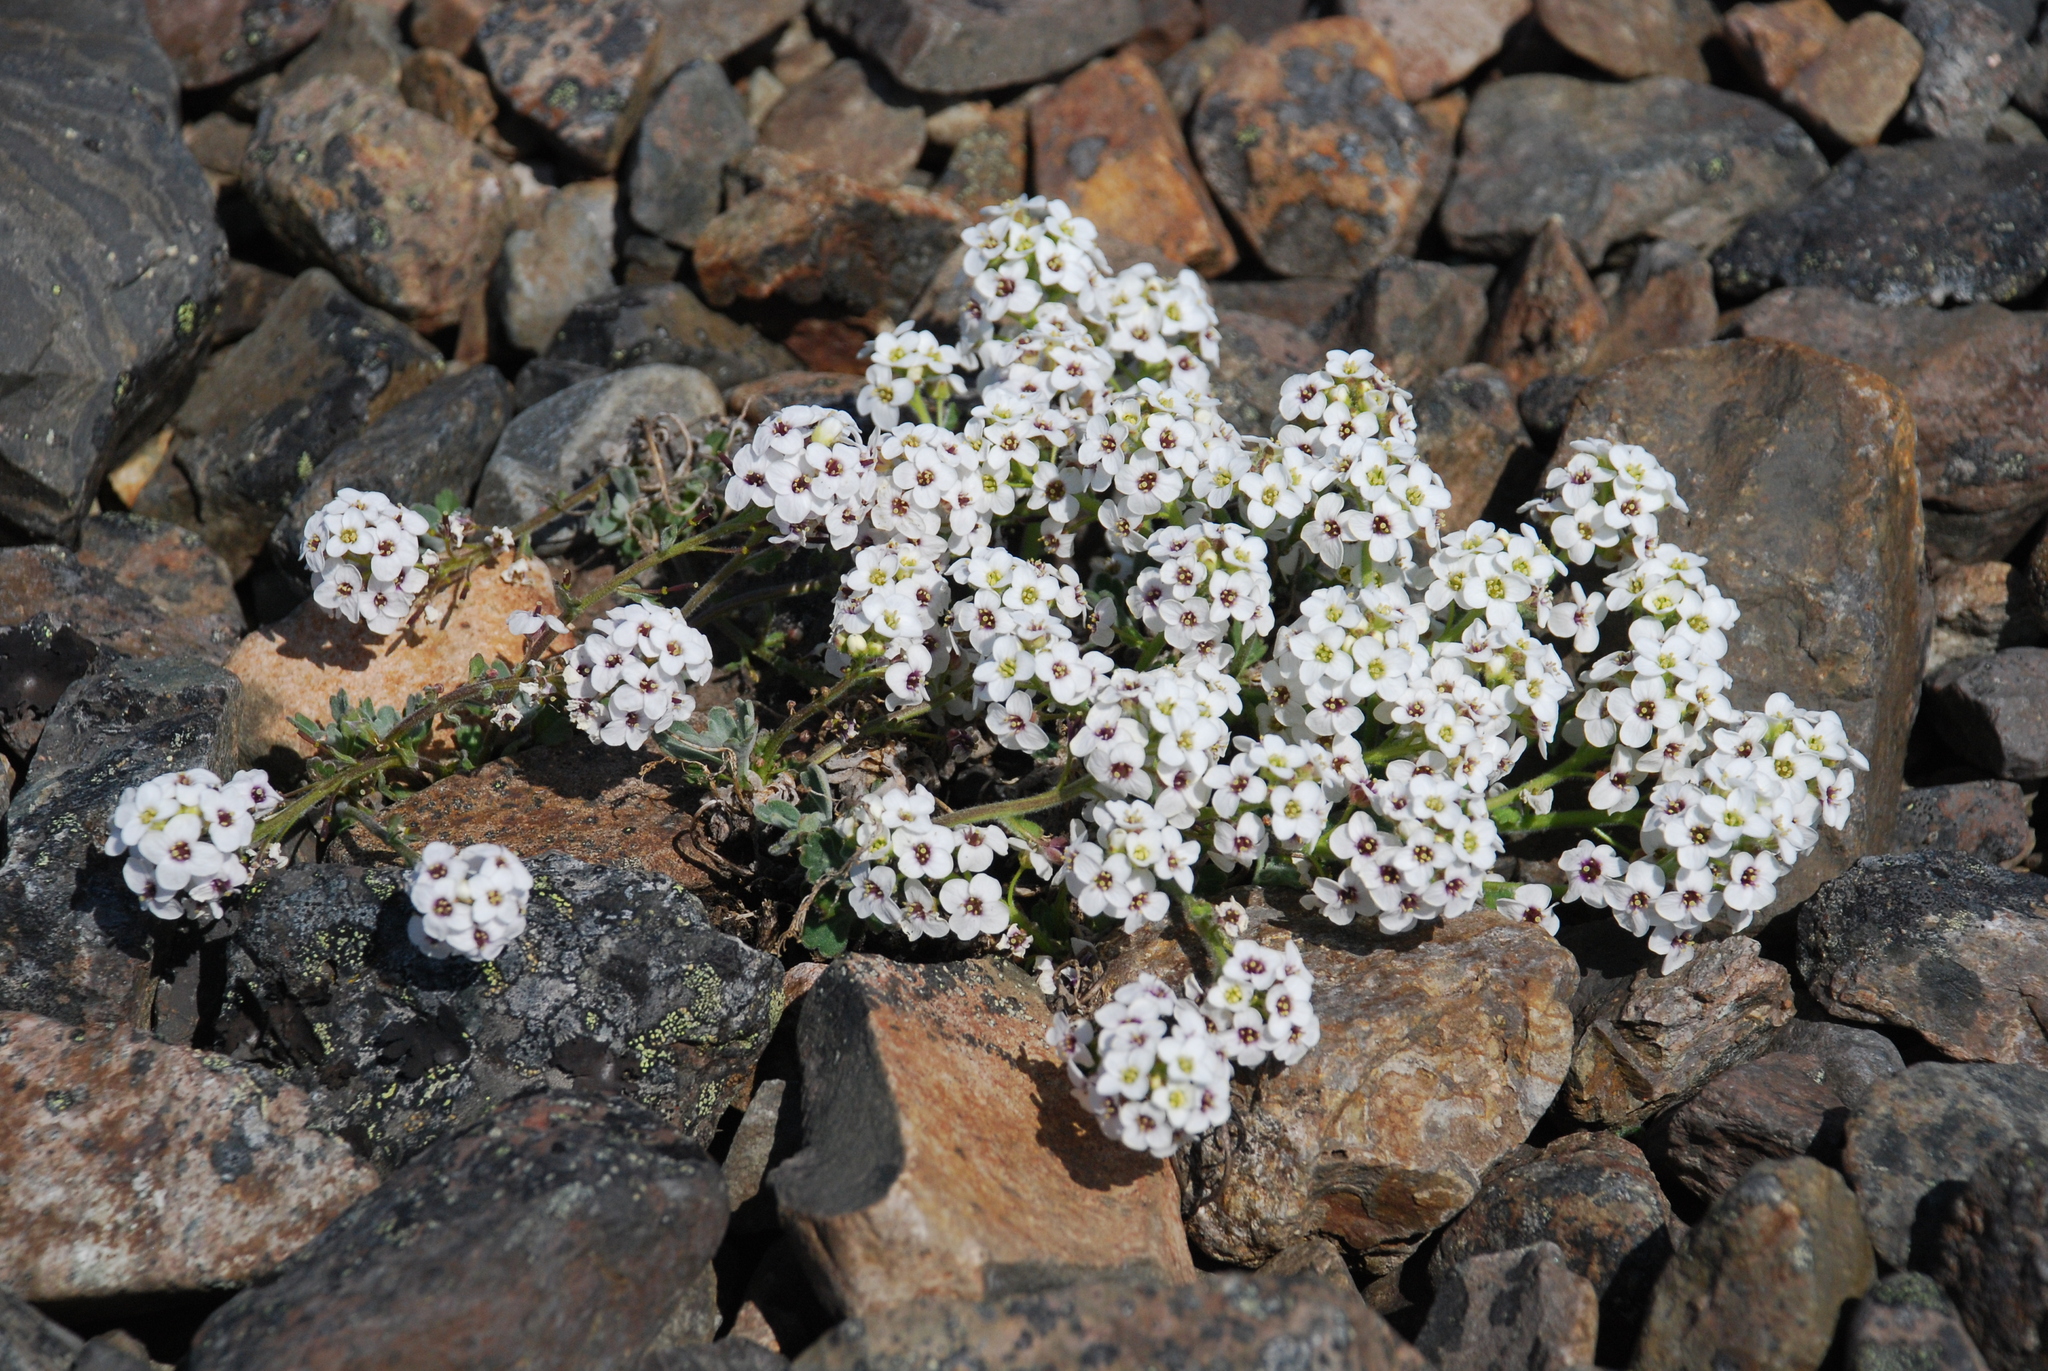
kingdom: Plantae
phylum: Tracheophyta
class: Magnoliopsida
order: Brassicales
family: Brassicaceae
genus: Smelowskia
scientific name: Smelowskia parryoides
